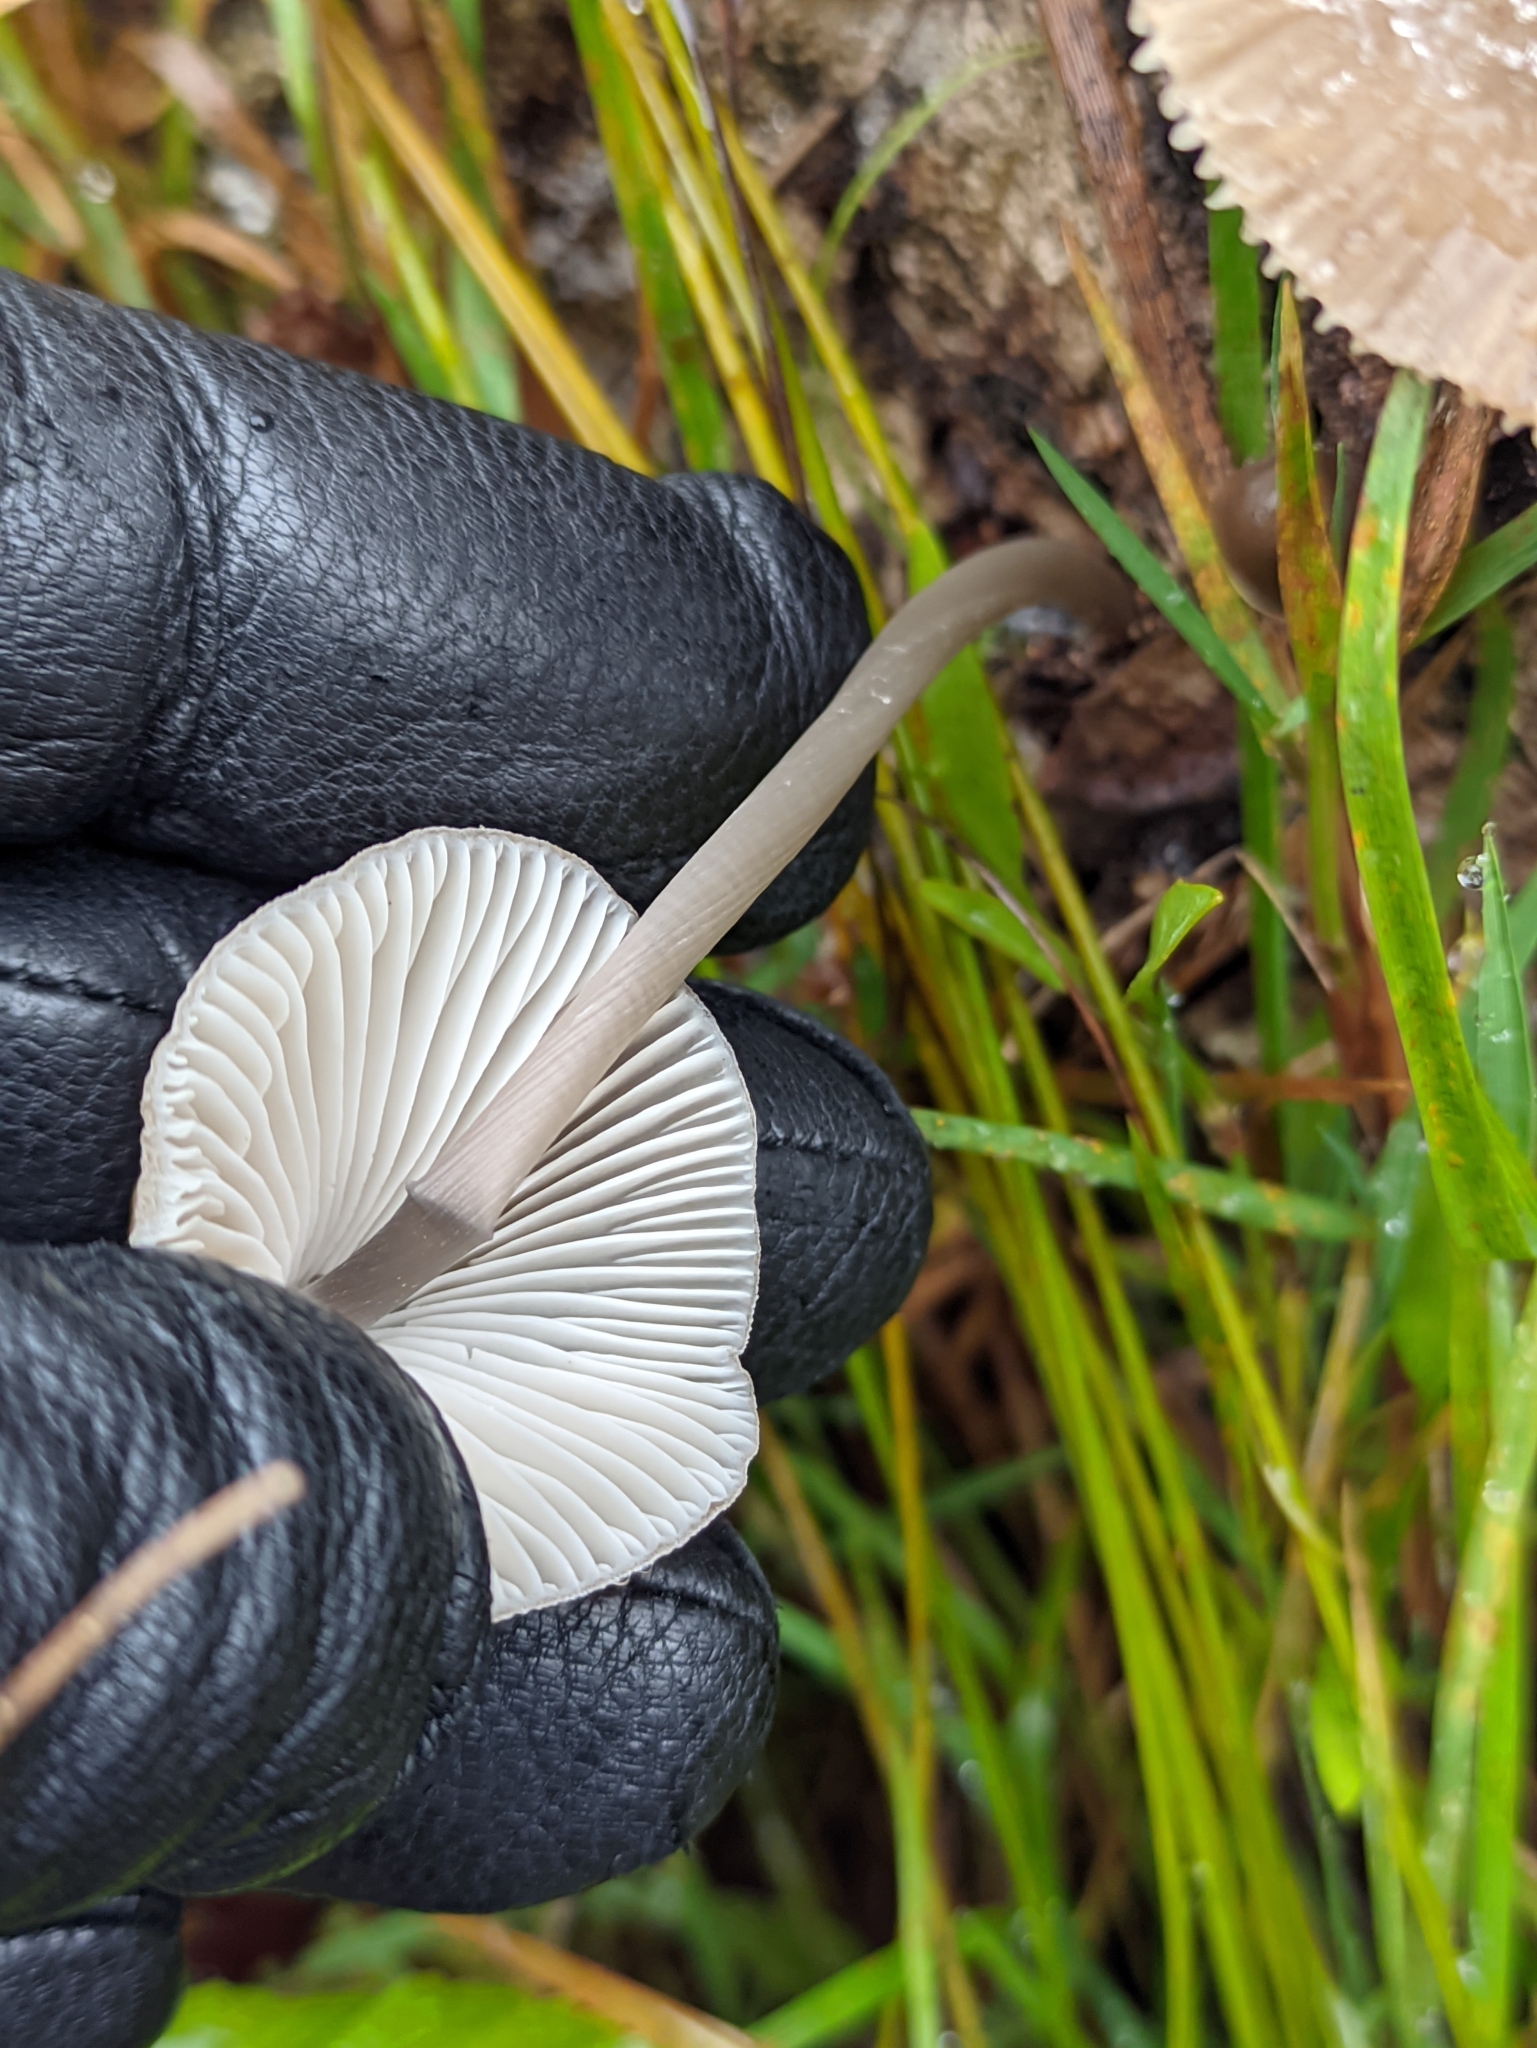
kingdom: Fungi
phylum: Basidiomycota
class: Agaricomycetes
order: Agaricales
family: Mycenaceae
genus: Mycena
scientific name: Mycena galericulata
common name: Bonnet mycena
